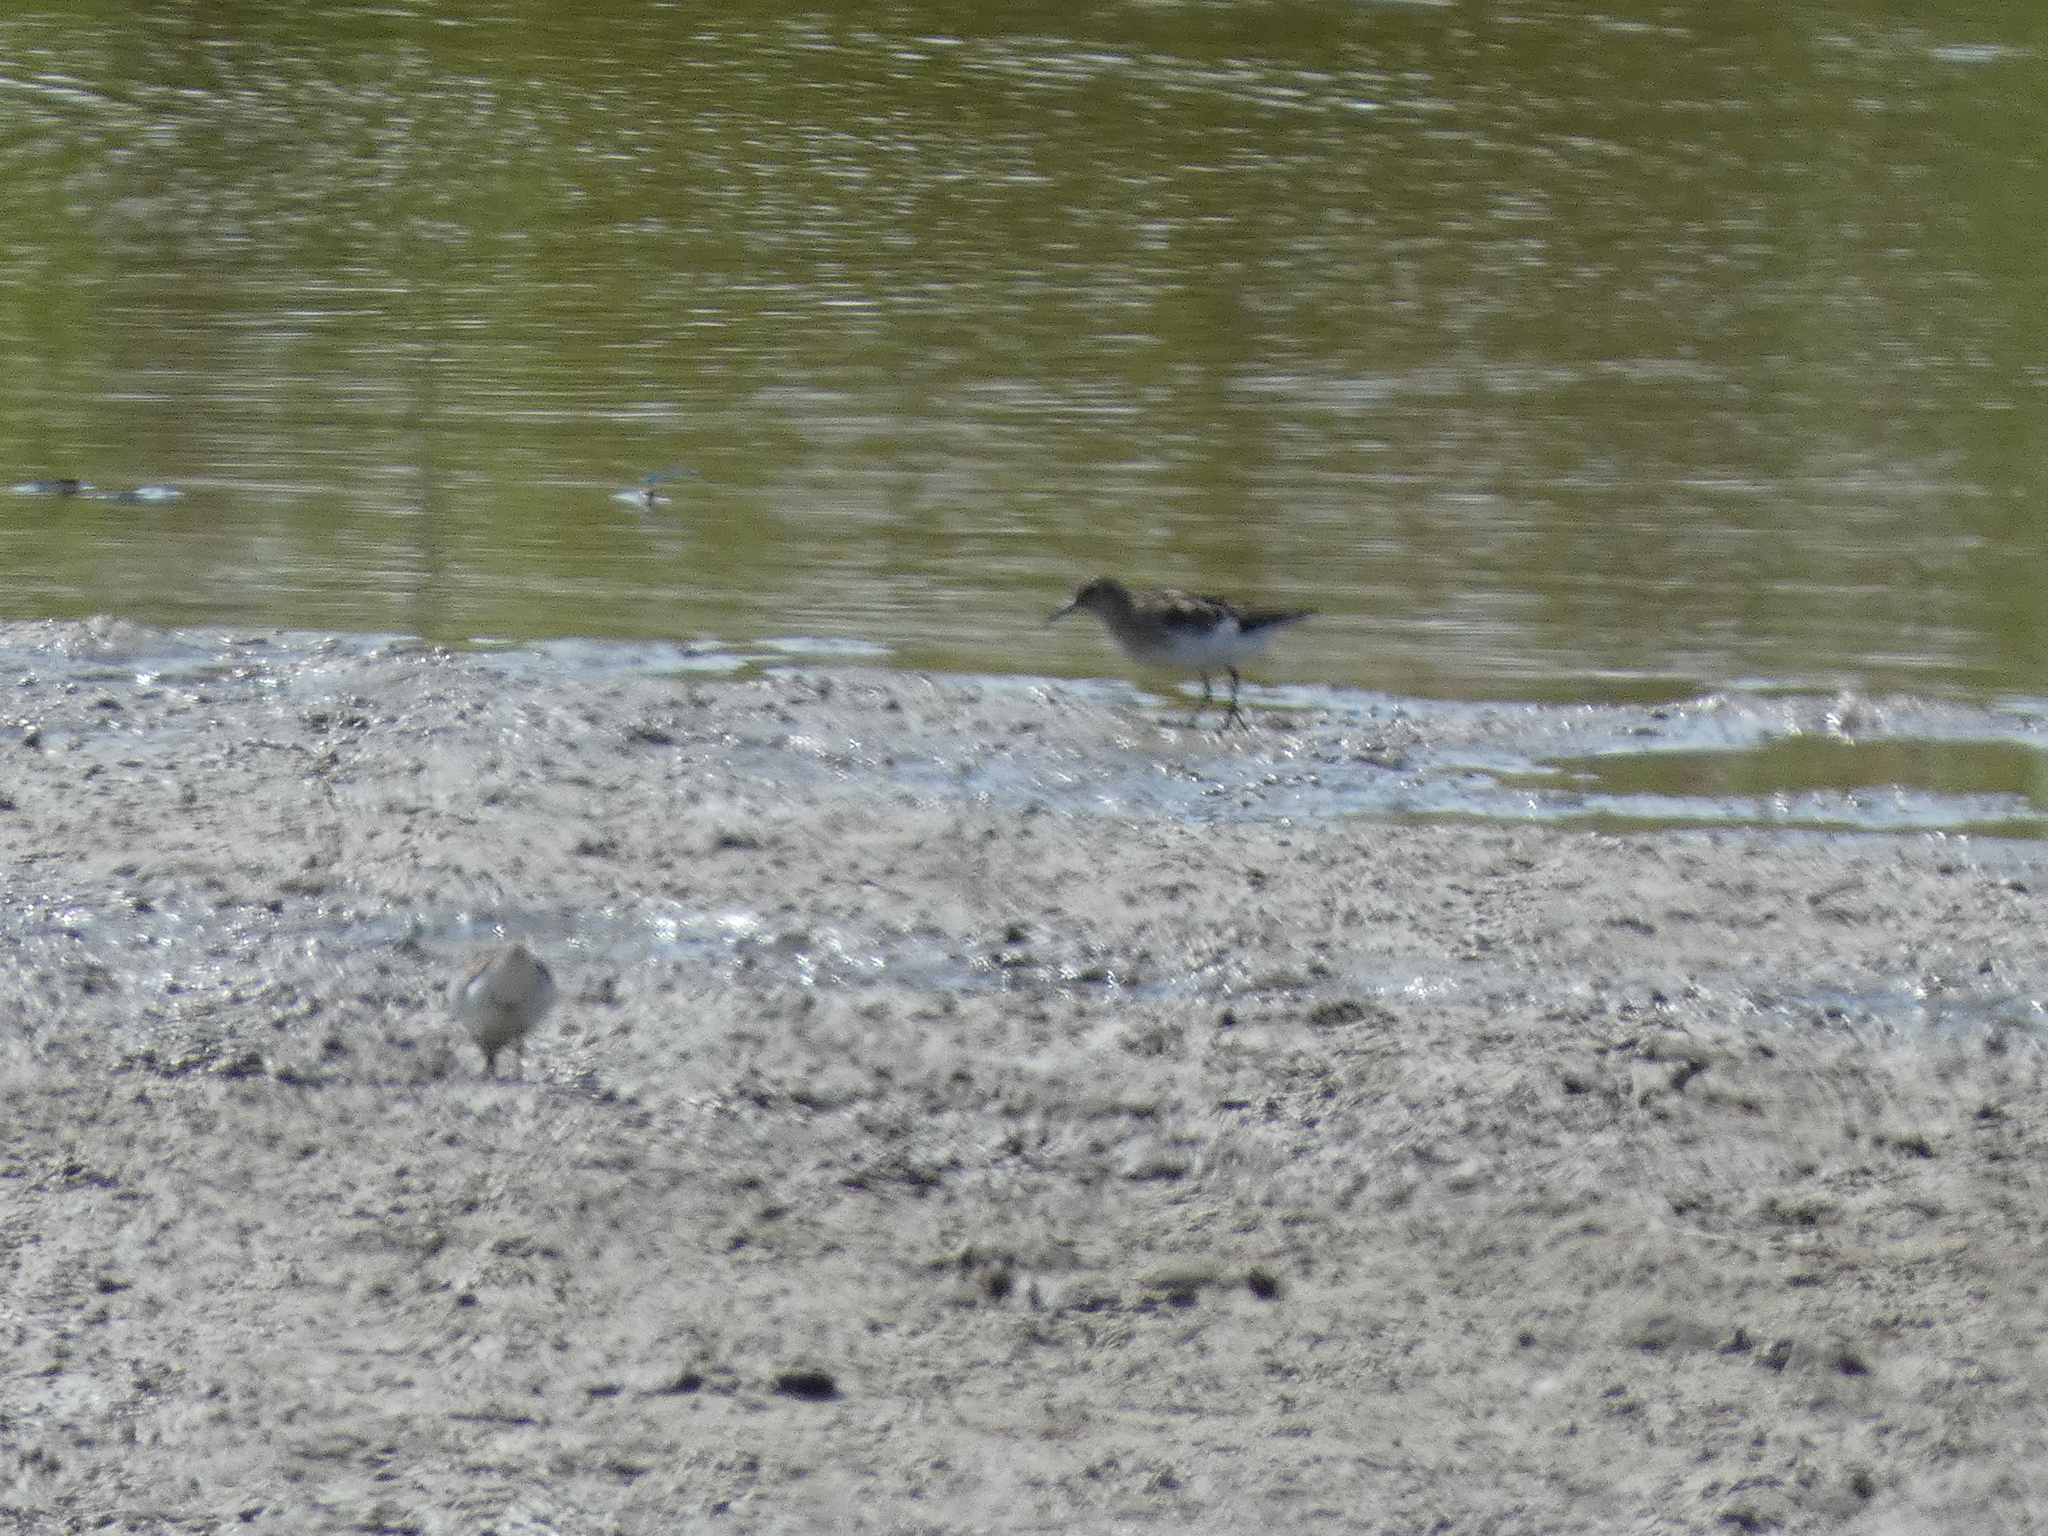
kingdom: Animalia
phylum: Chordata
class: Aves
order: Charadriiformes
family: Scolopacidae
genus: Calidris
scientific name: Calidris minutilla
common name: Least sandpiper
